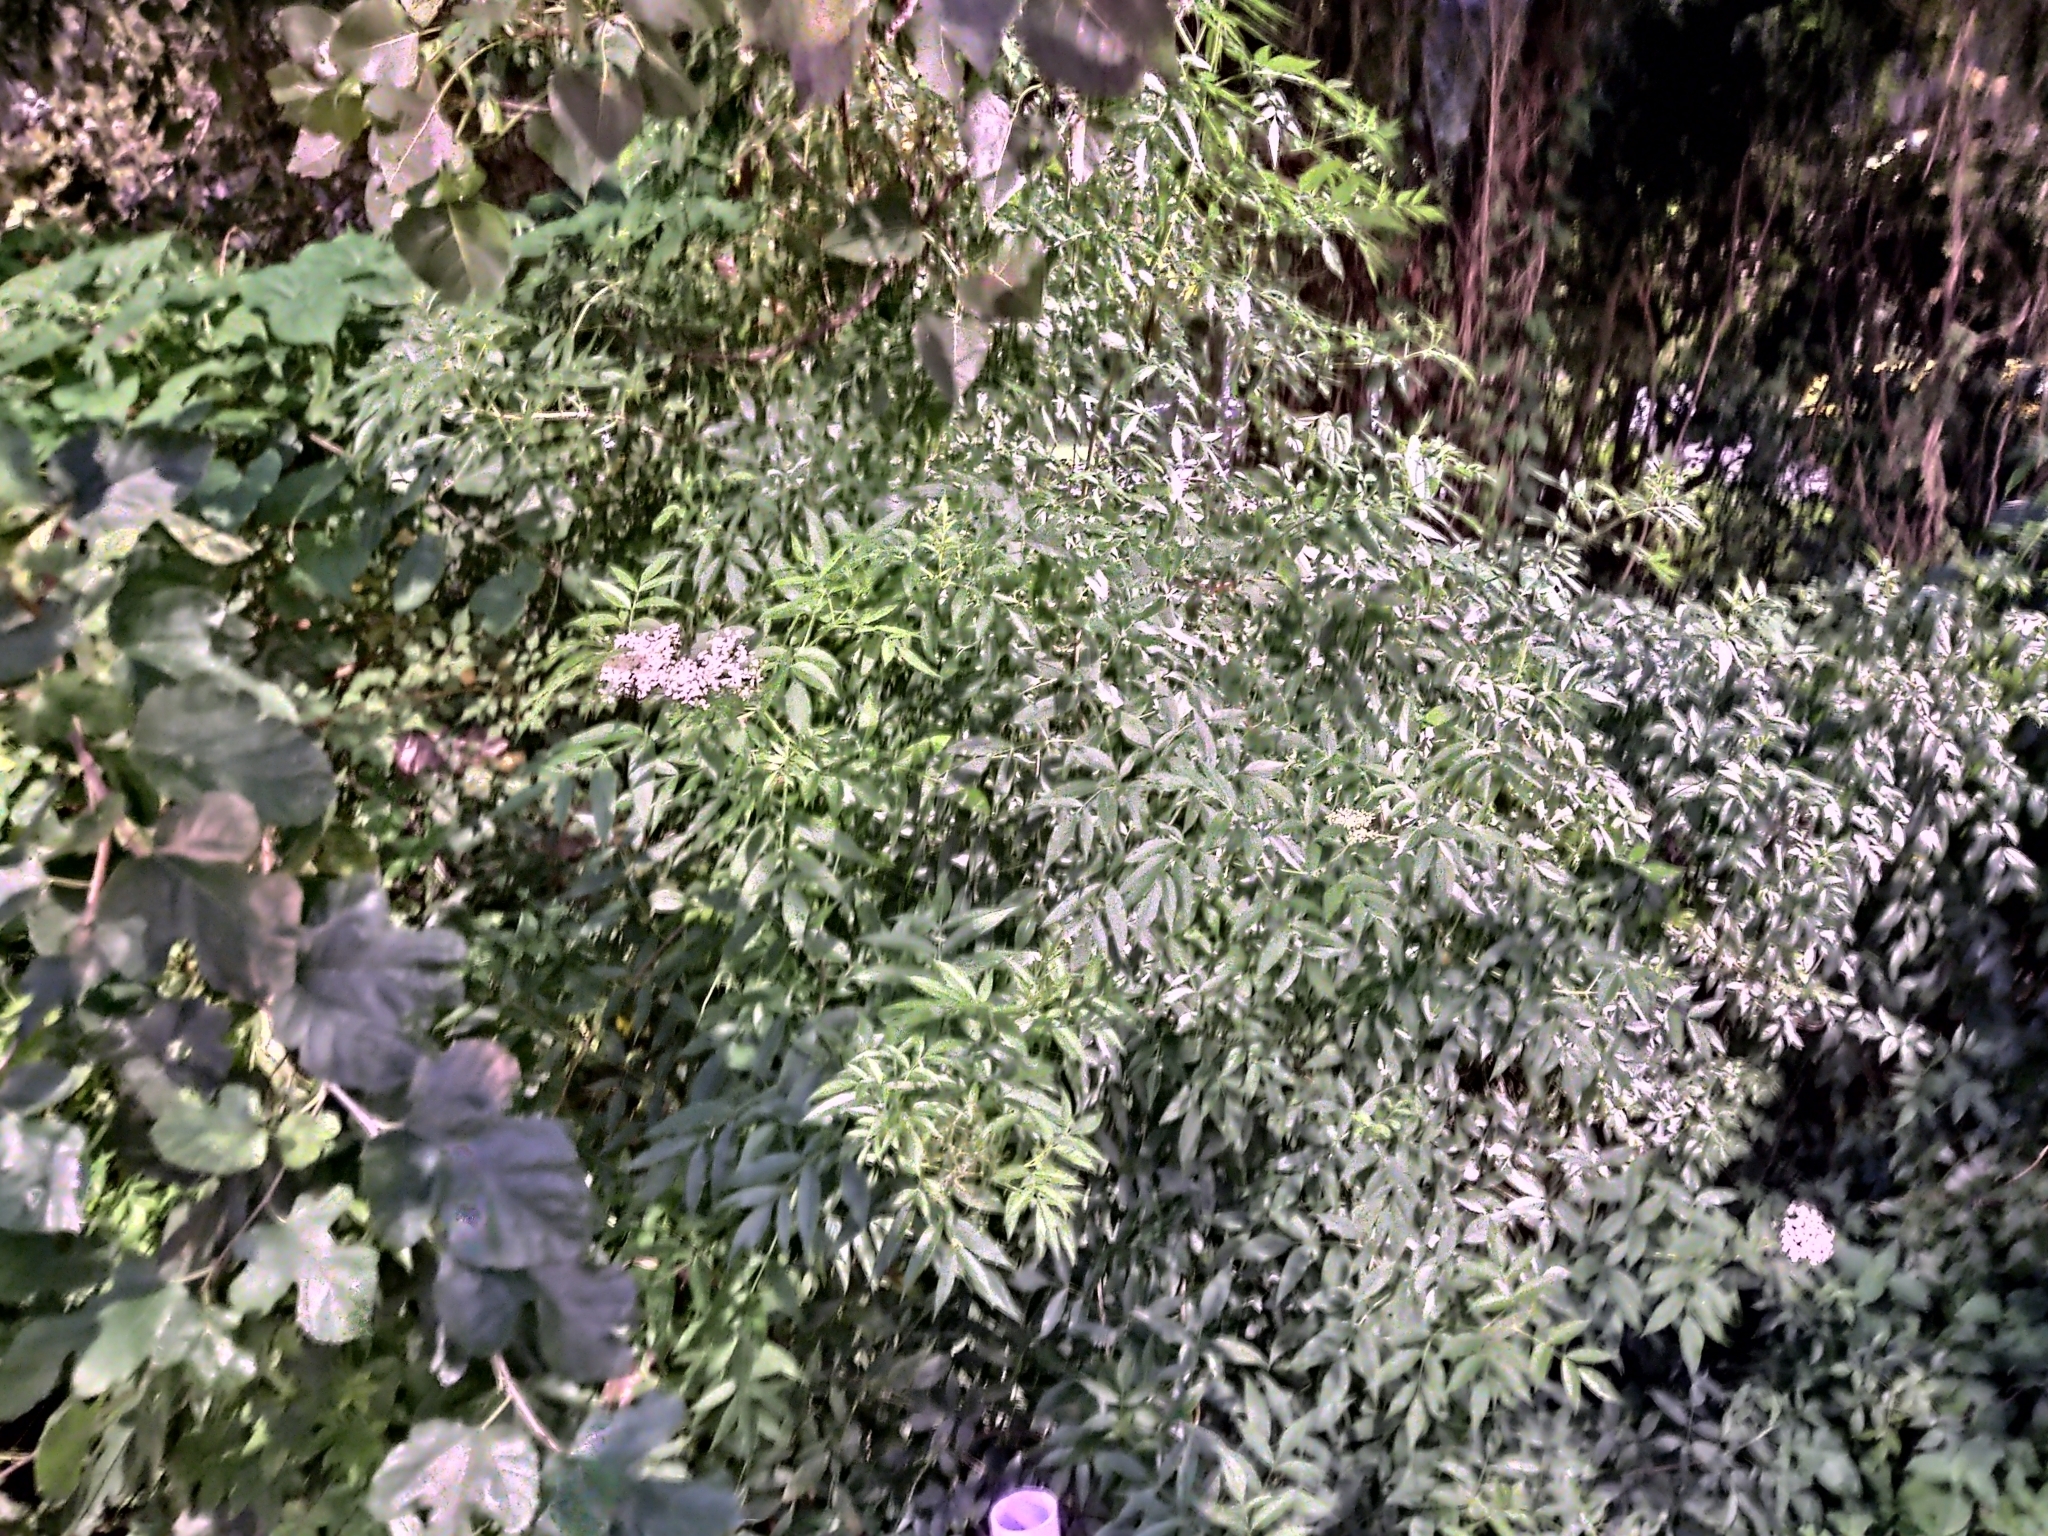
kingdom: Plantae
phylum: Tracheophyta
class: Magnoliopsida
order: Dipsacales
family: Viburnaceae
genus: Sambucus
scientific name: Sambucus canadensis
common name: American elder
